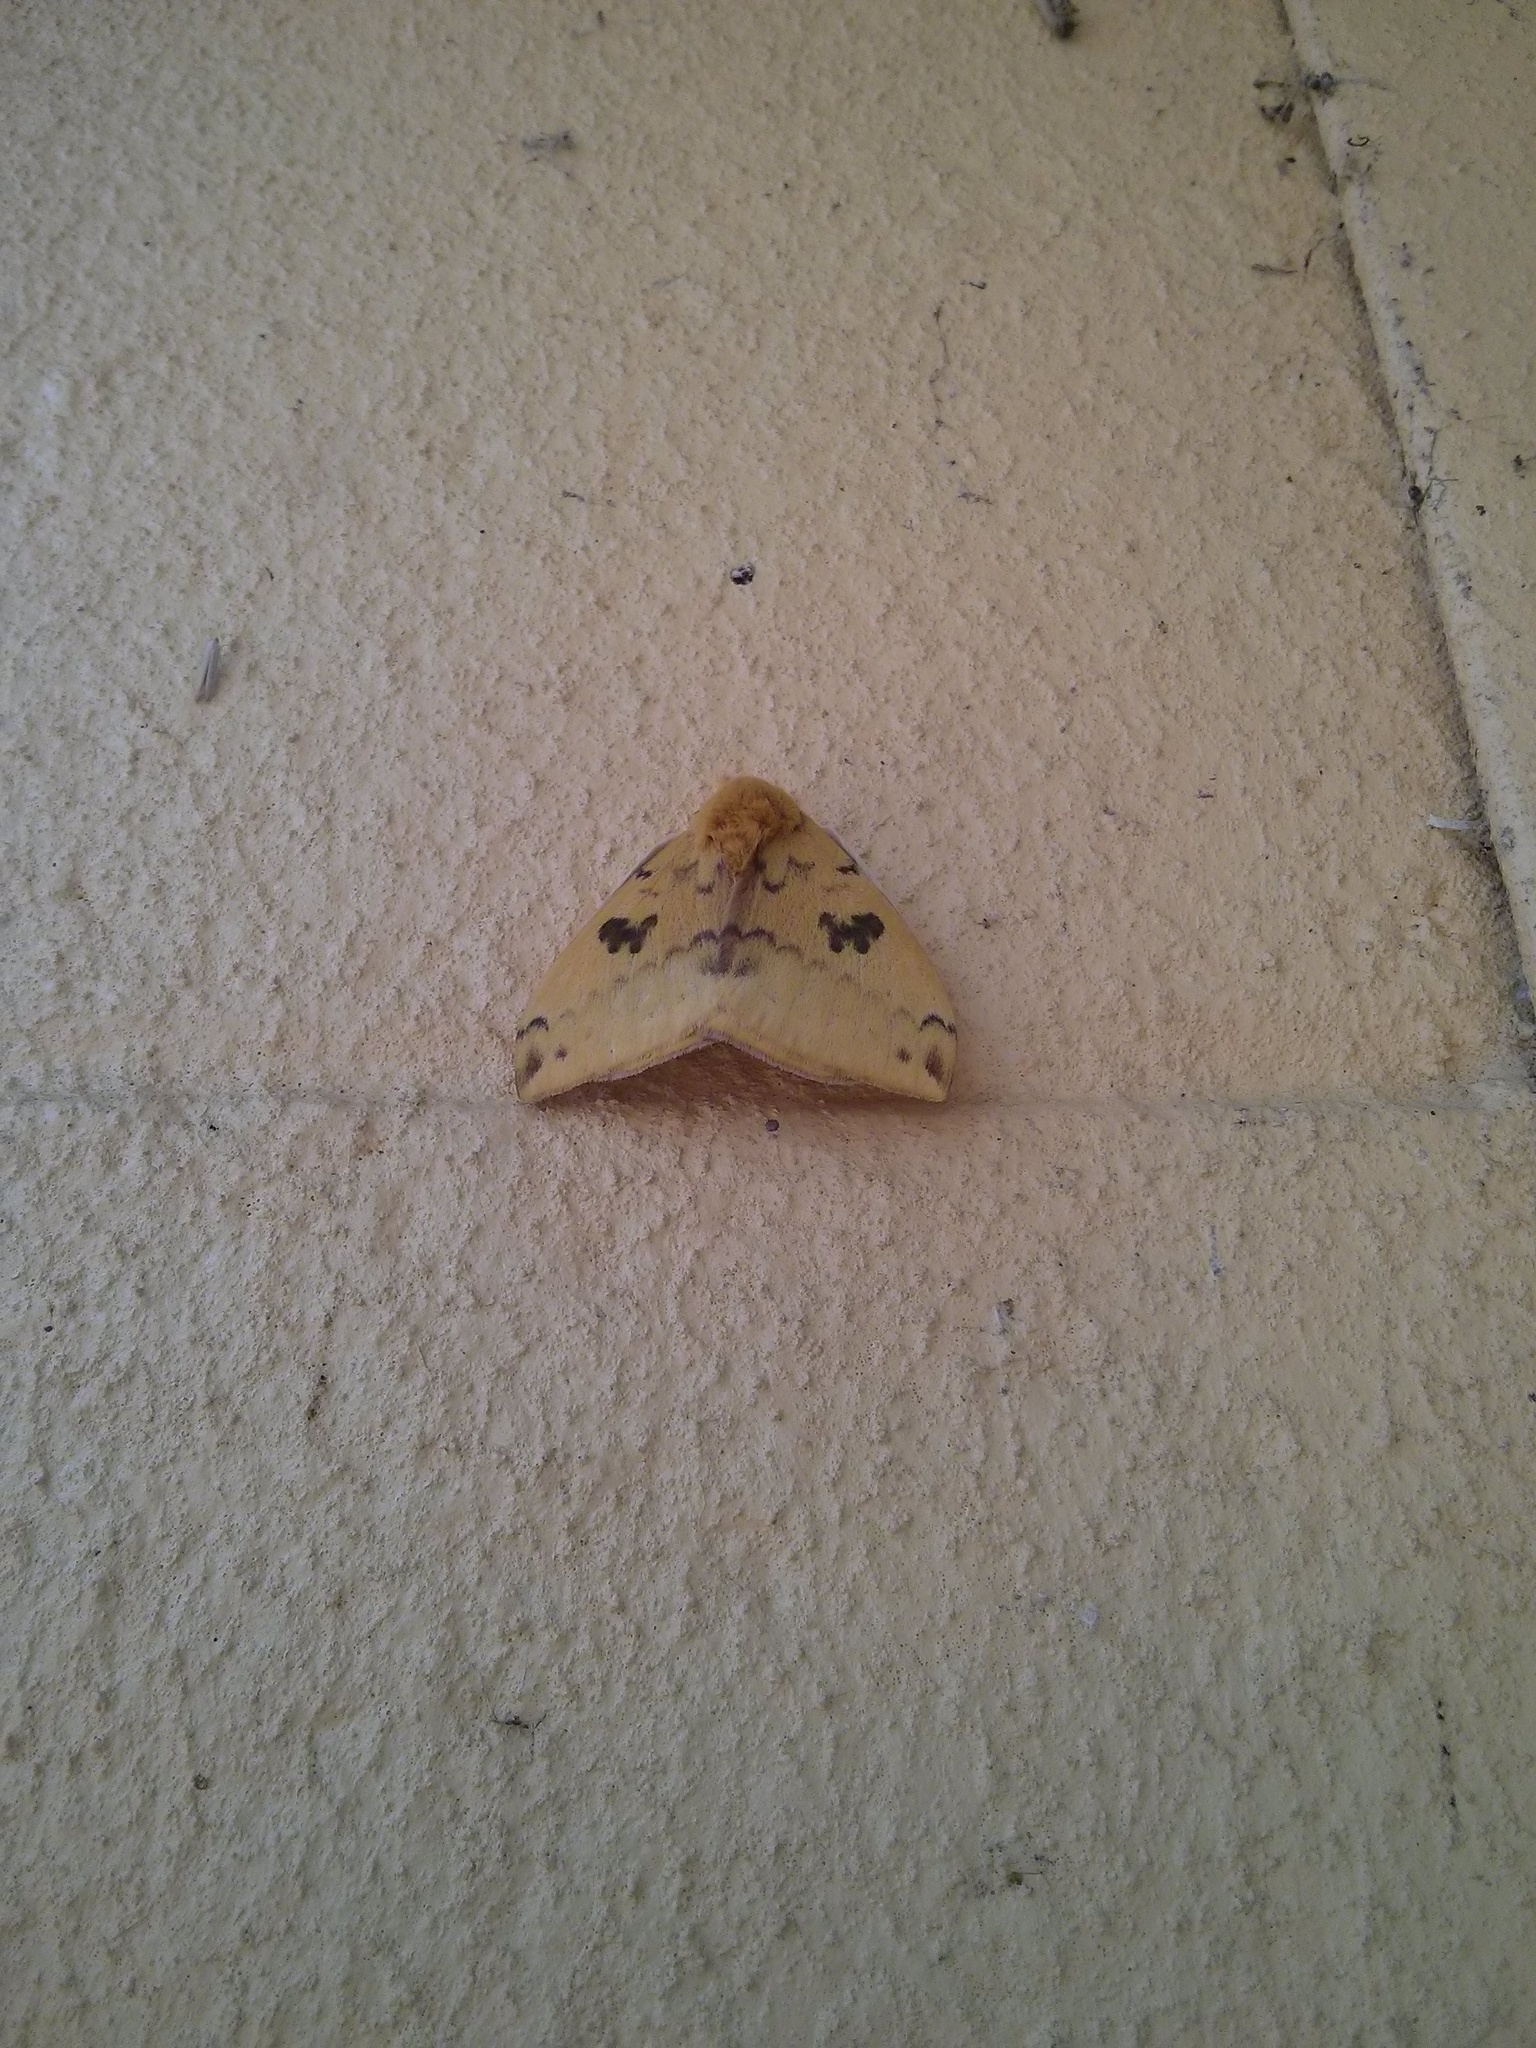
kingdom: Animalia
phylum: Arthropoda
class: Insecta
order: Lepidoptera
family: Saturniidae
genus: Automeris
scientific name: Automeris io
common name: Io moth
